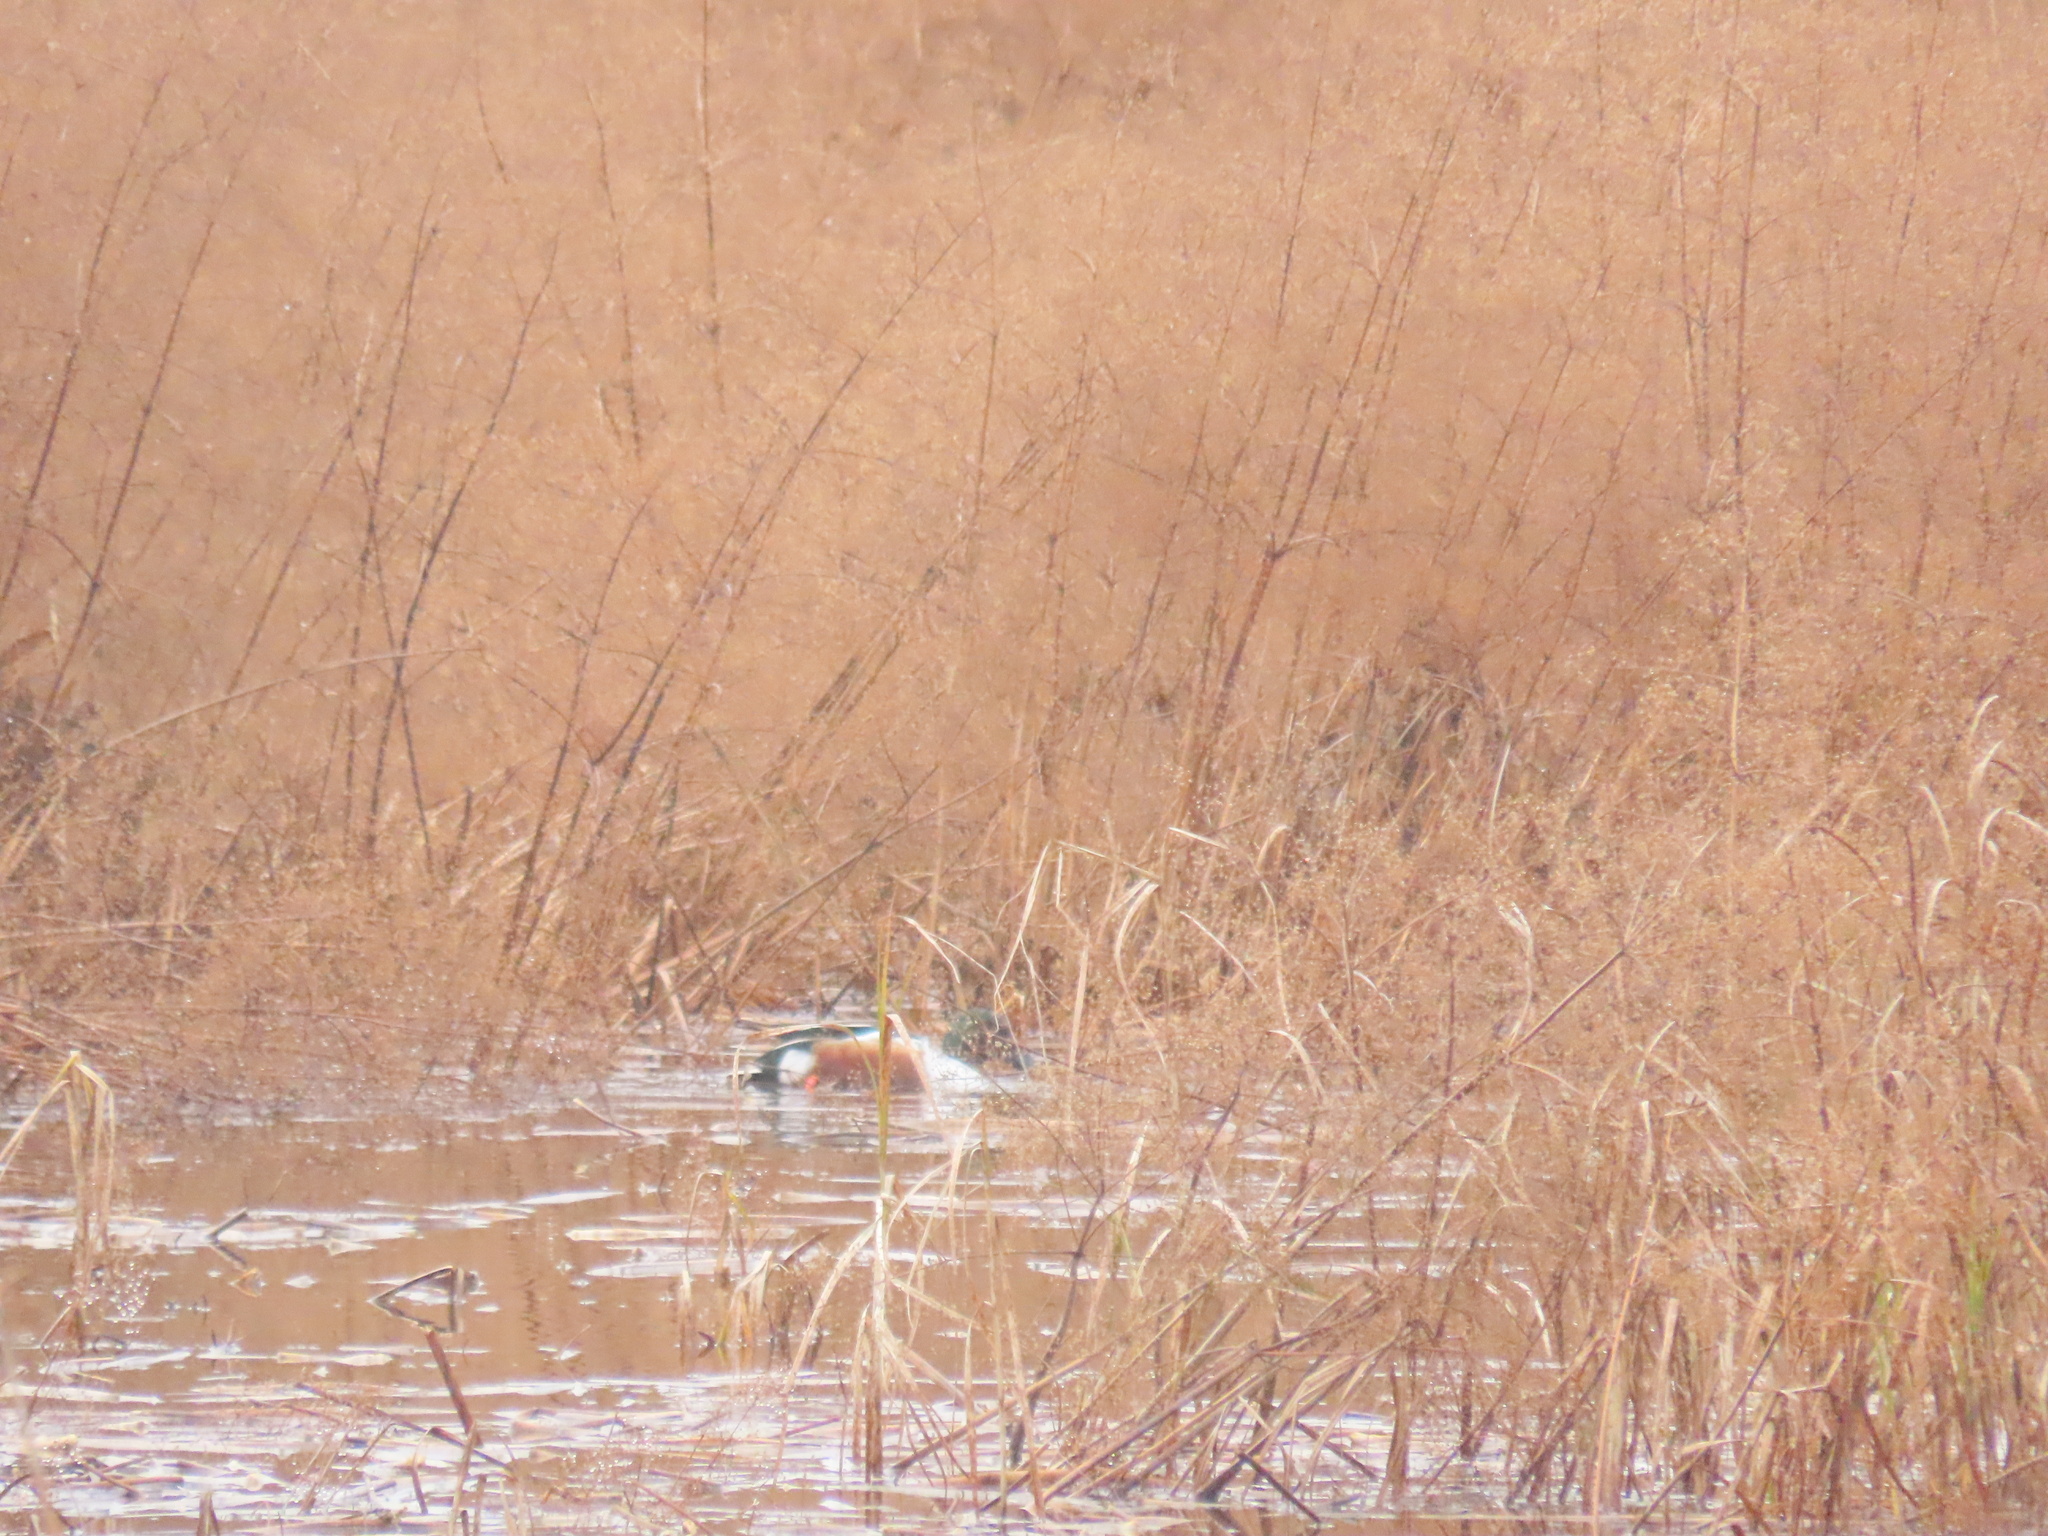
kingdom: Animalia
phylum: Chordata
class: Aves
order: Anseriformes
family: Anatidae
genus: Spatula
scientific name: Spatula clypeata
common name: Northern shoveler
